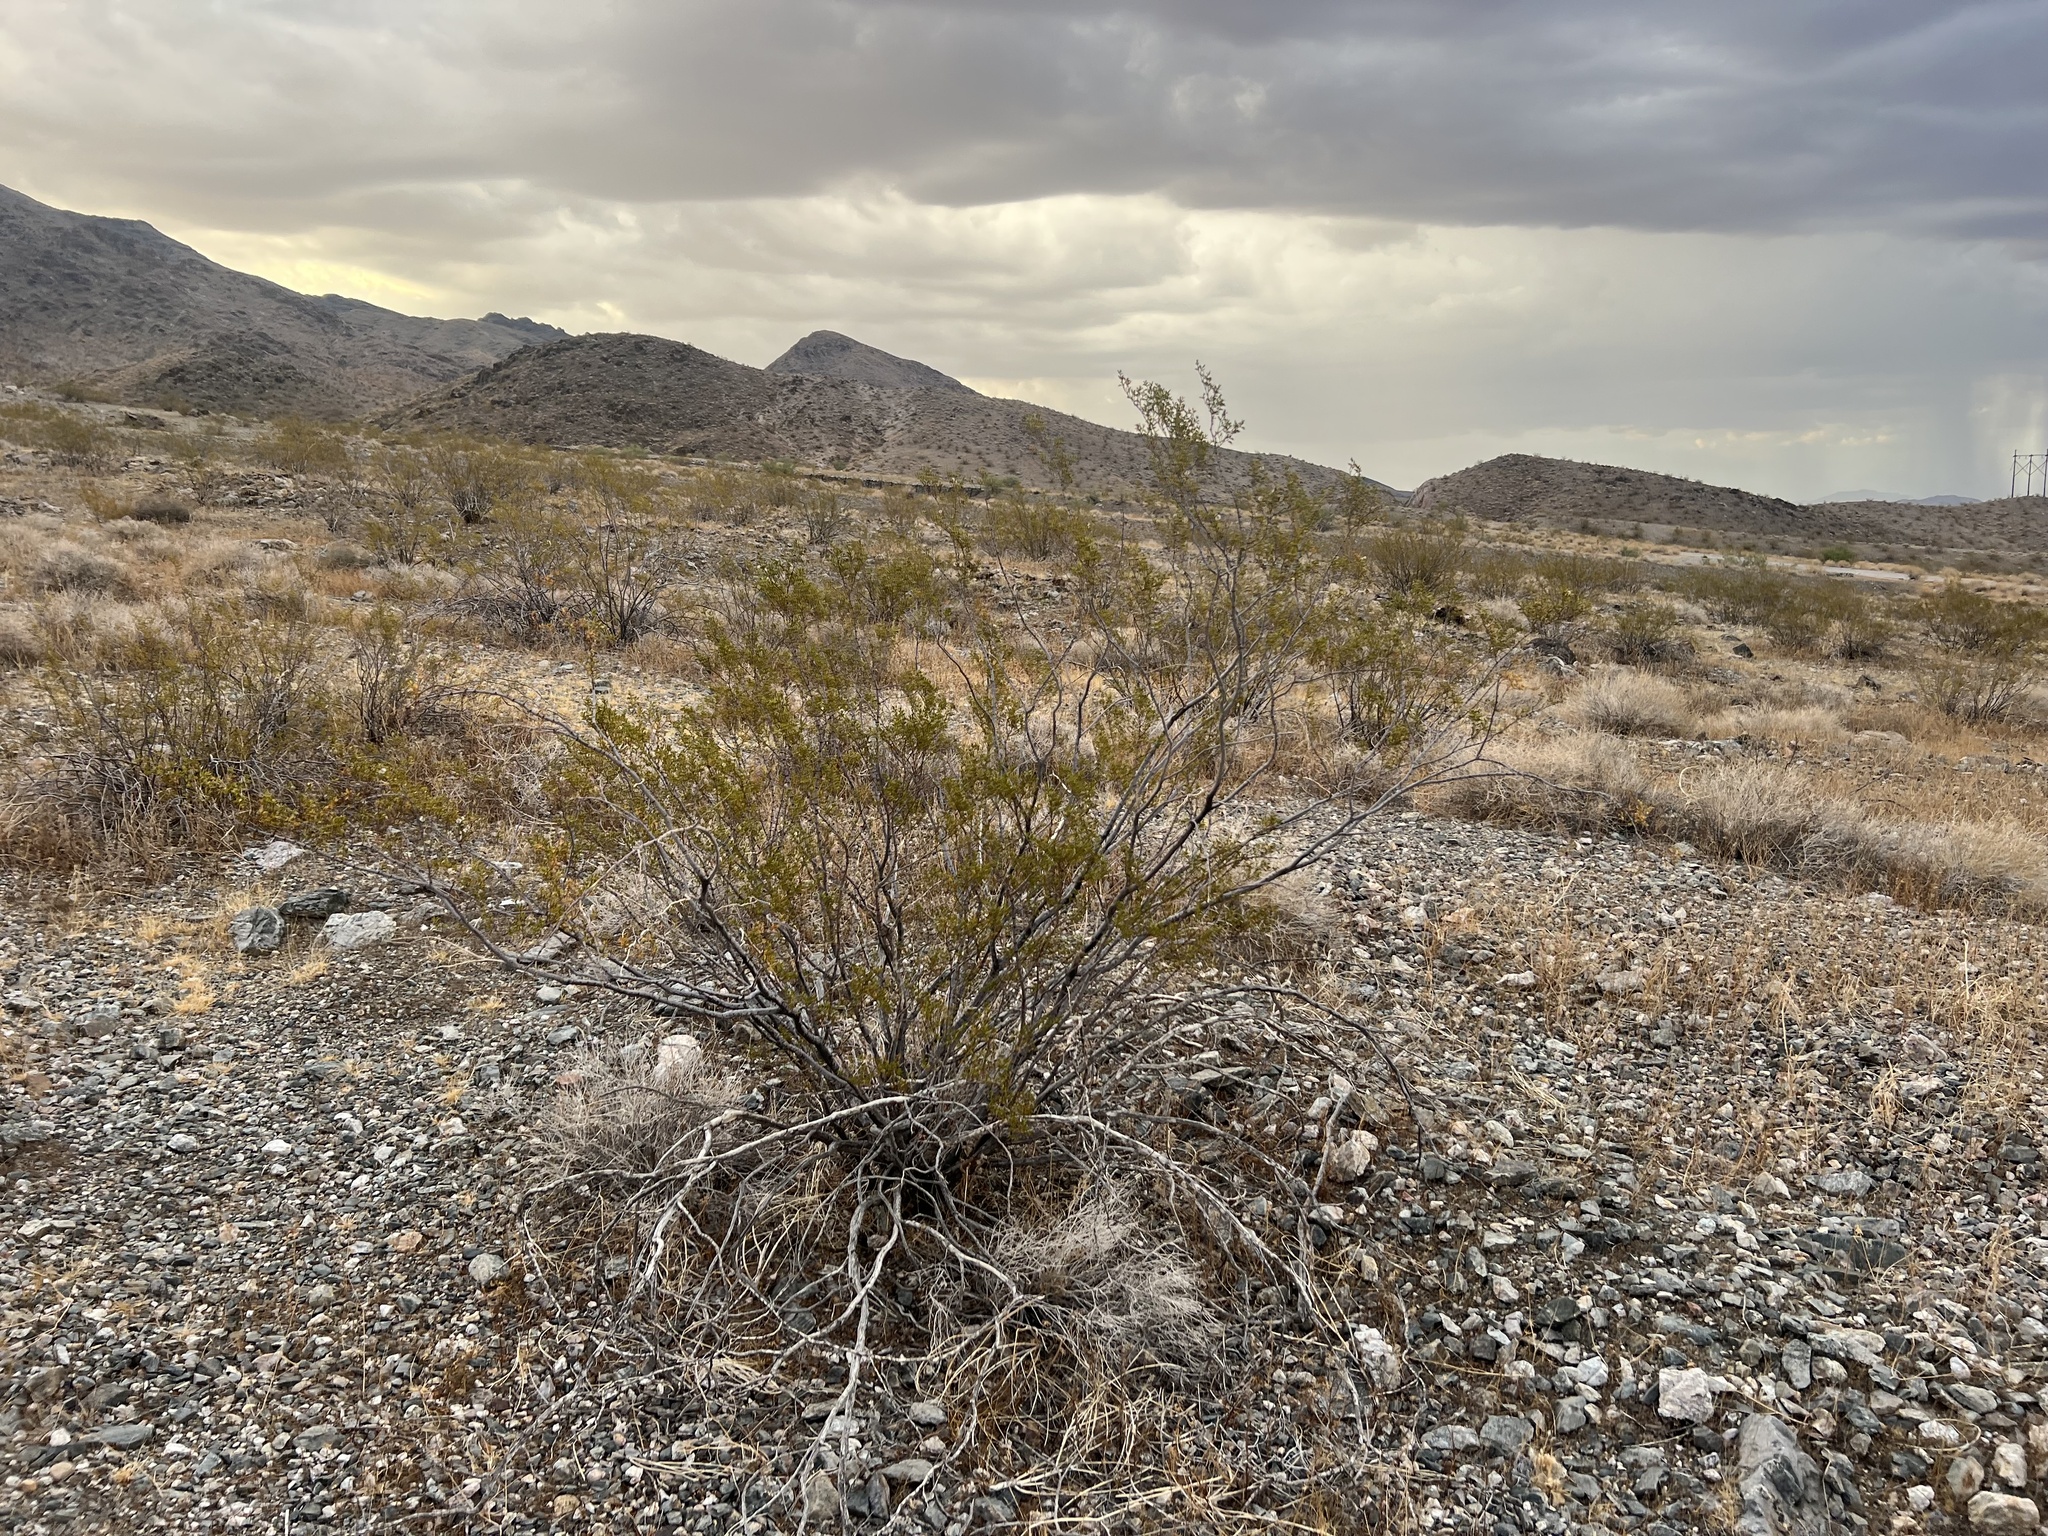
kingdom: Plantae
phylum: Tracheophyta
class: Magnoliopsida
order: Zygophyllales
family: Zygophyllaceae
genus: Larrea
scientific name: Larrea tridentata
